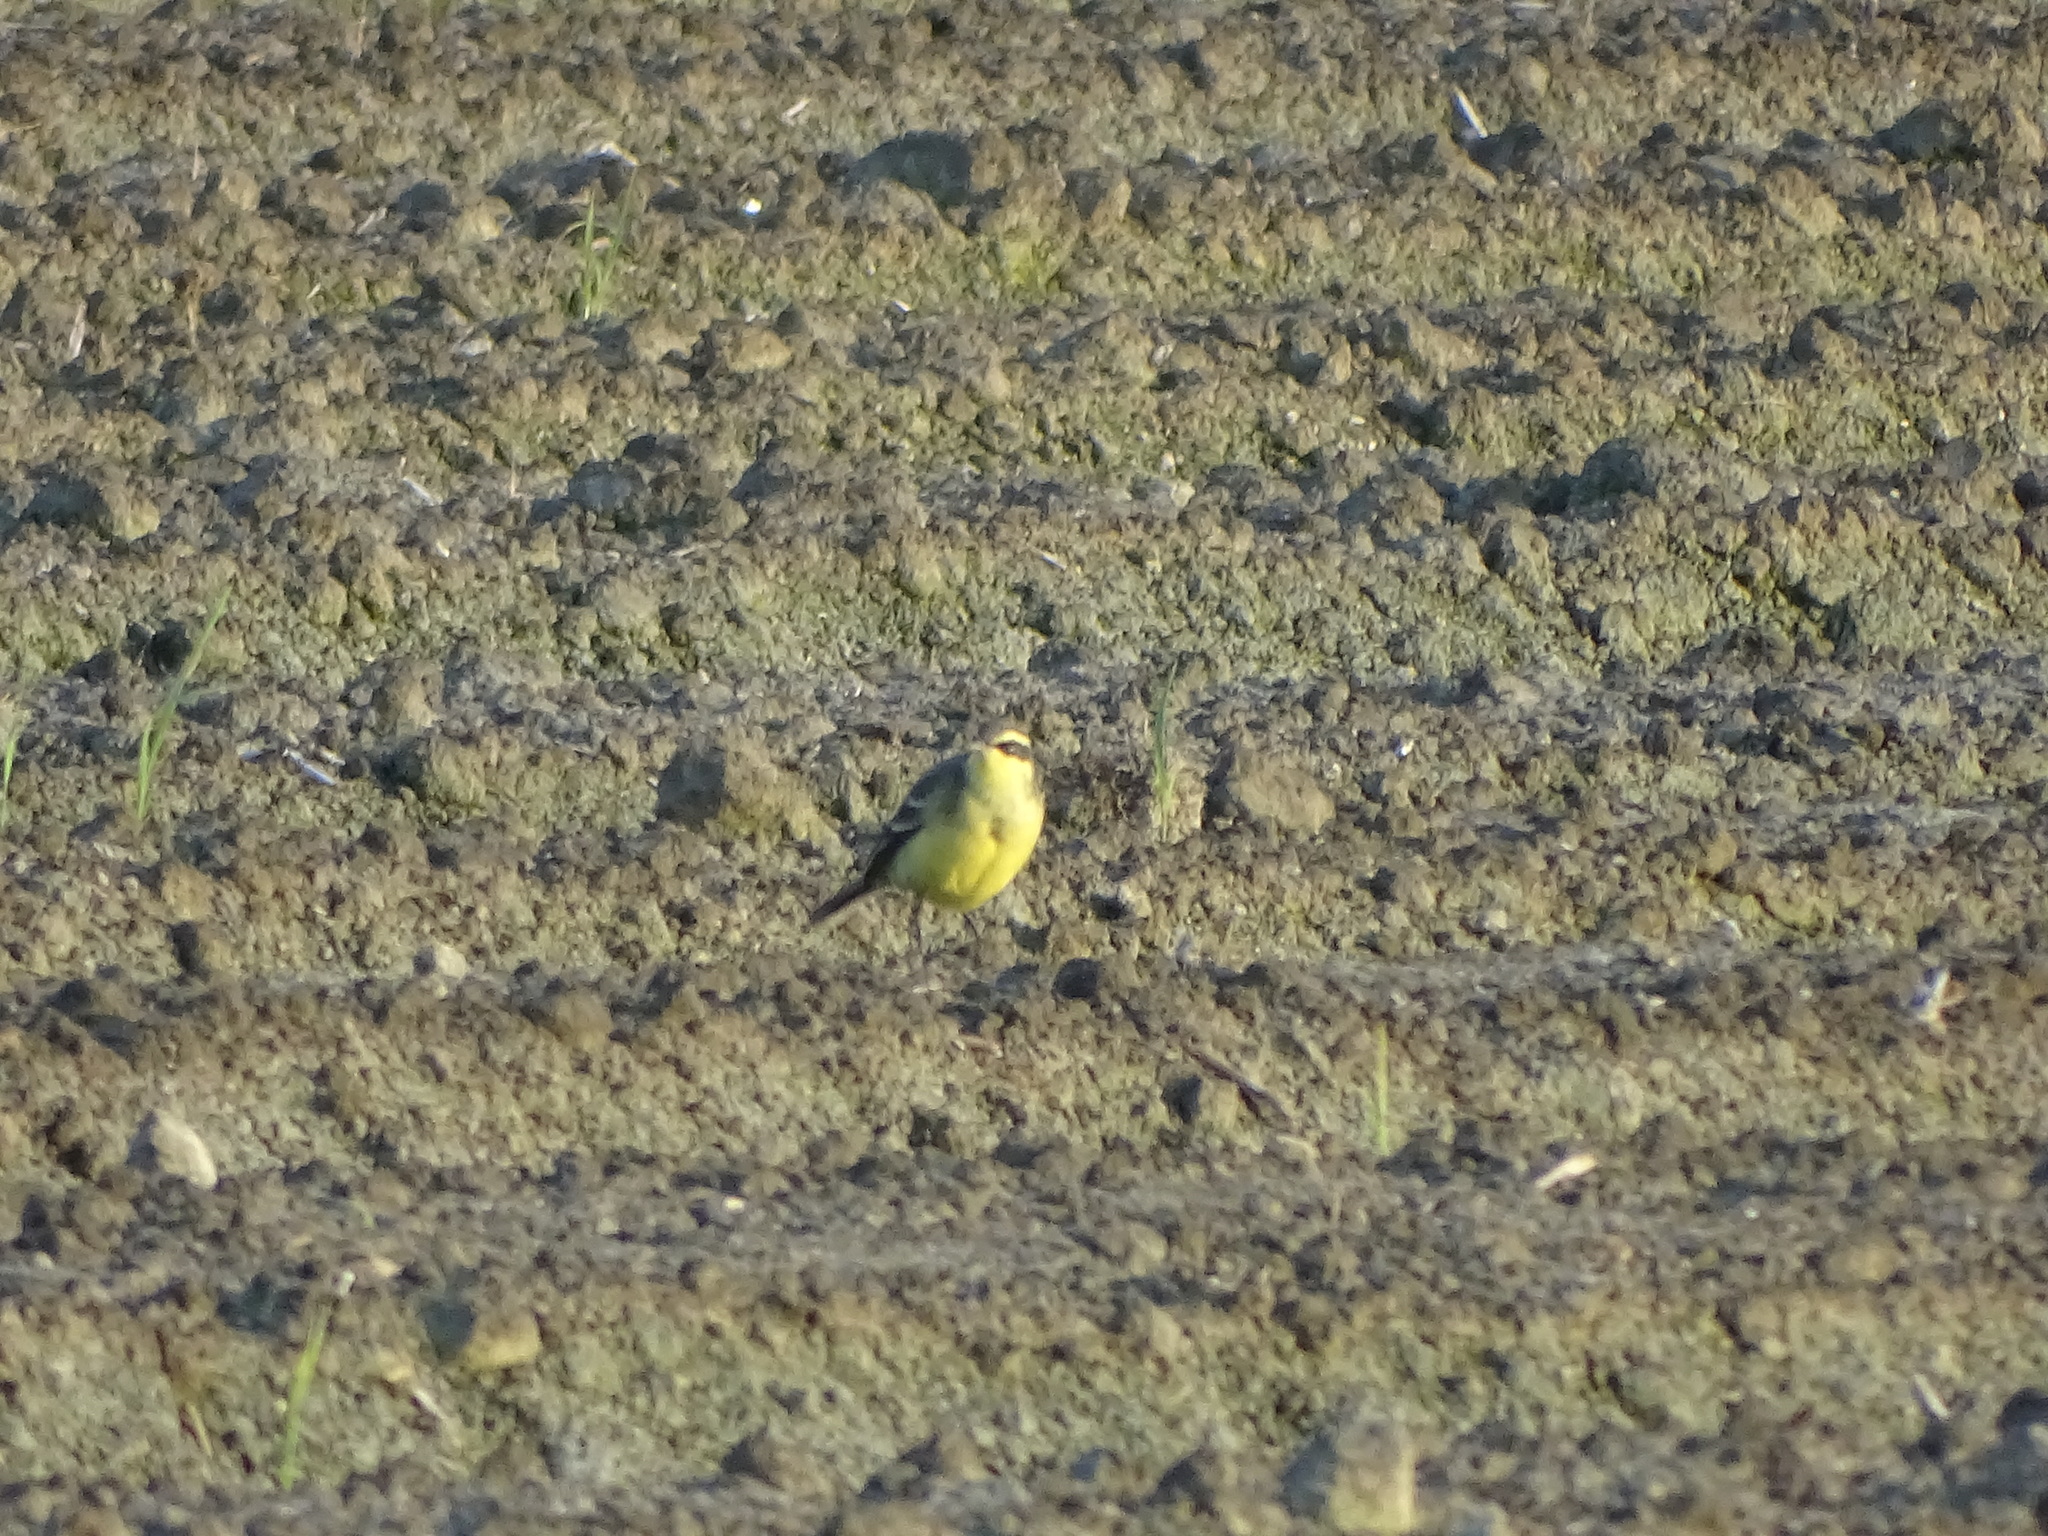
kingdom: Animalia
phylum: Chordata
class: Aves
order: Passeriformes
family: Motacillidae
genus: Motacilla
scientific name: Motacilla tschutschensis
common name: Eastern yellow wagtail
